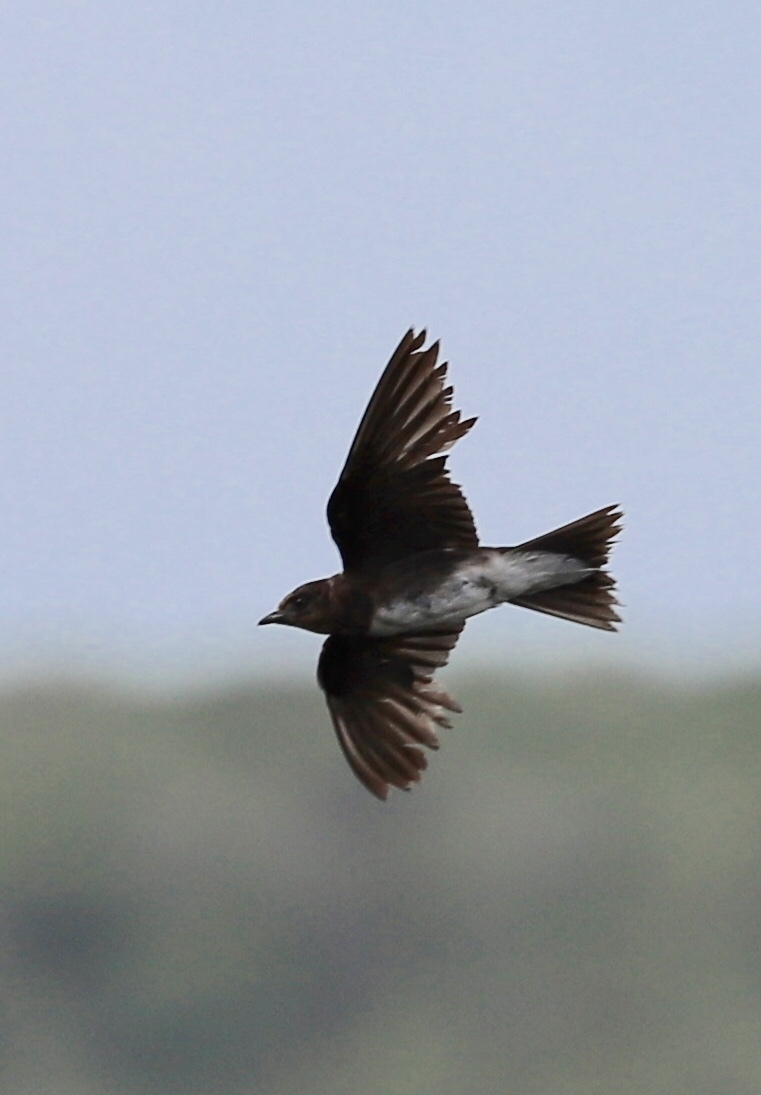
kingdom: Animalia
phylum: Chordata
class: Aves
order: Passeriformes
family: Hirundinidae
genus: Progne
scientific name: Progne dominicensis
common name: Caribbean martin
